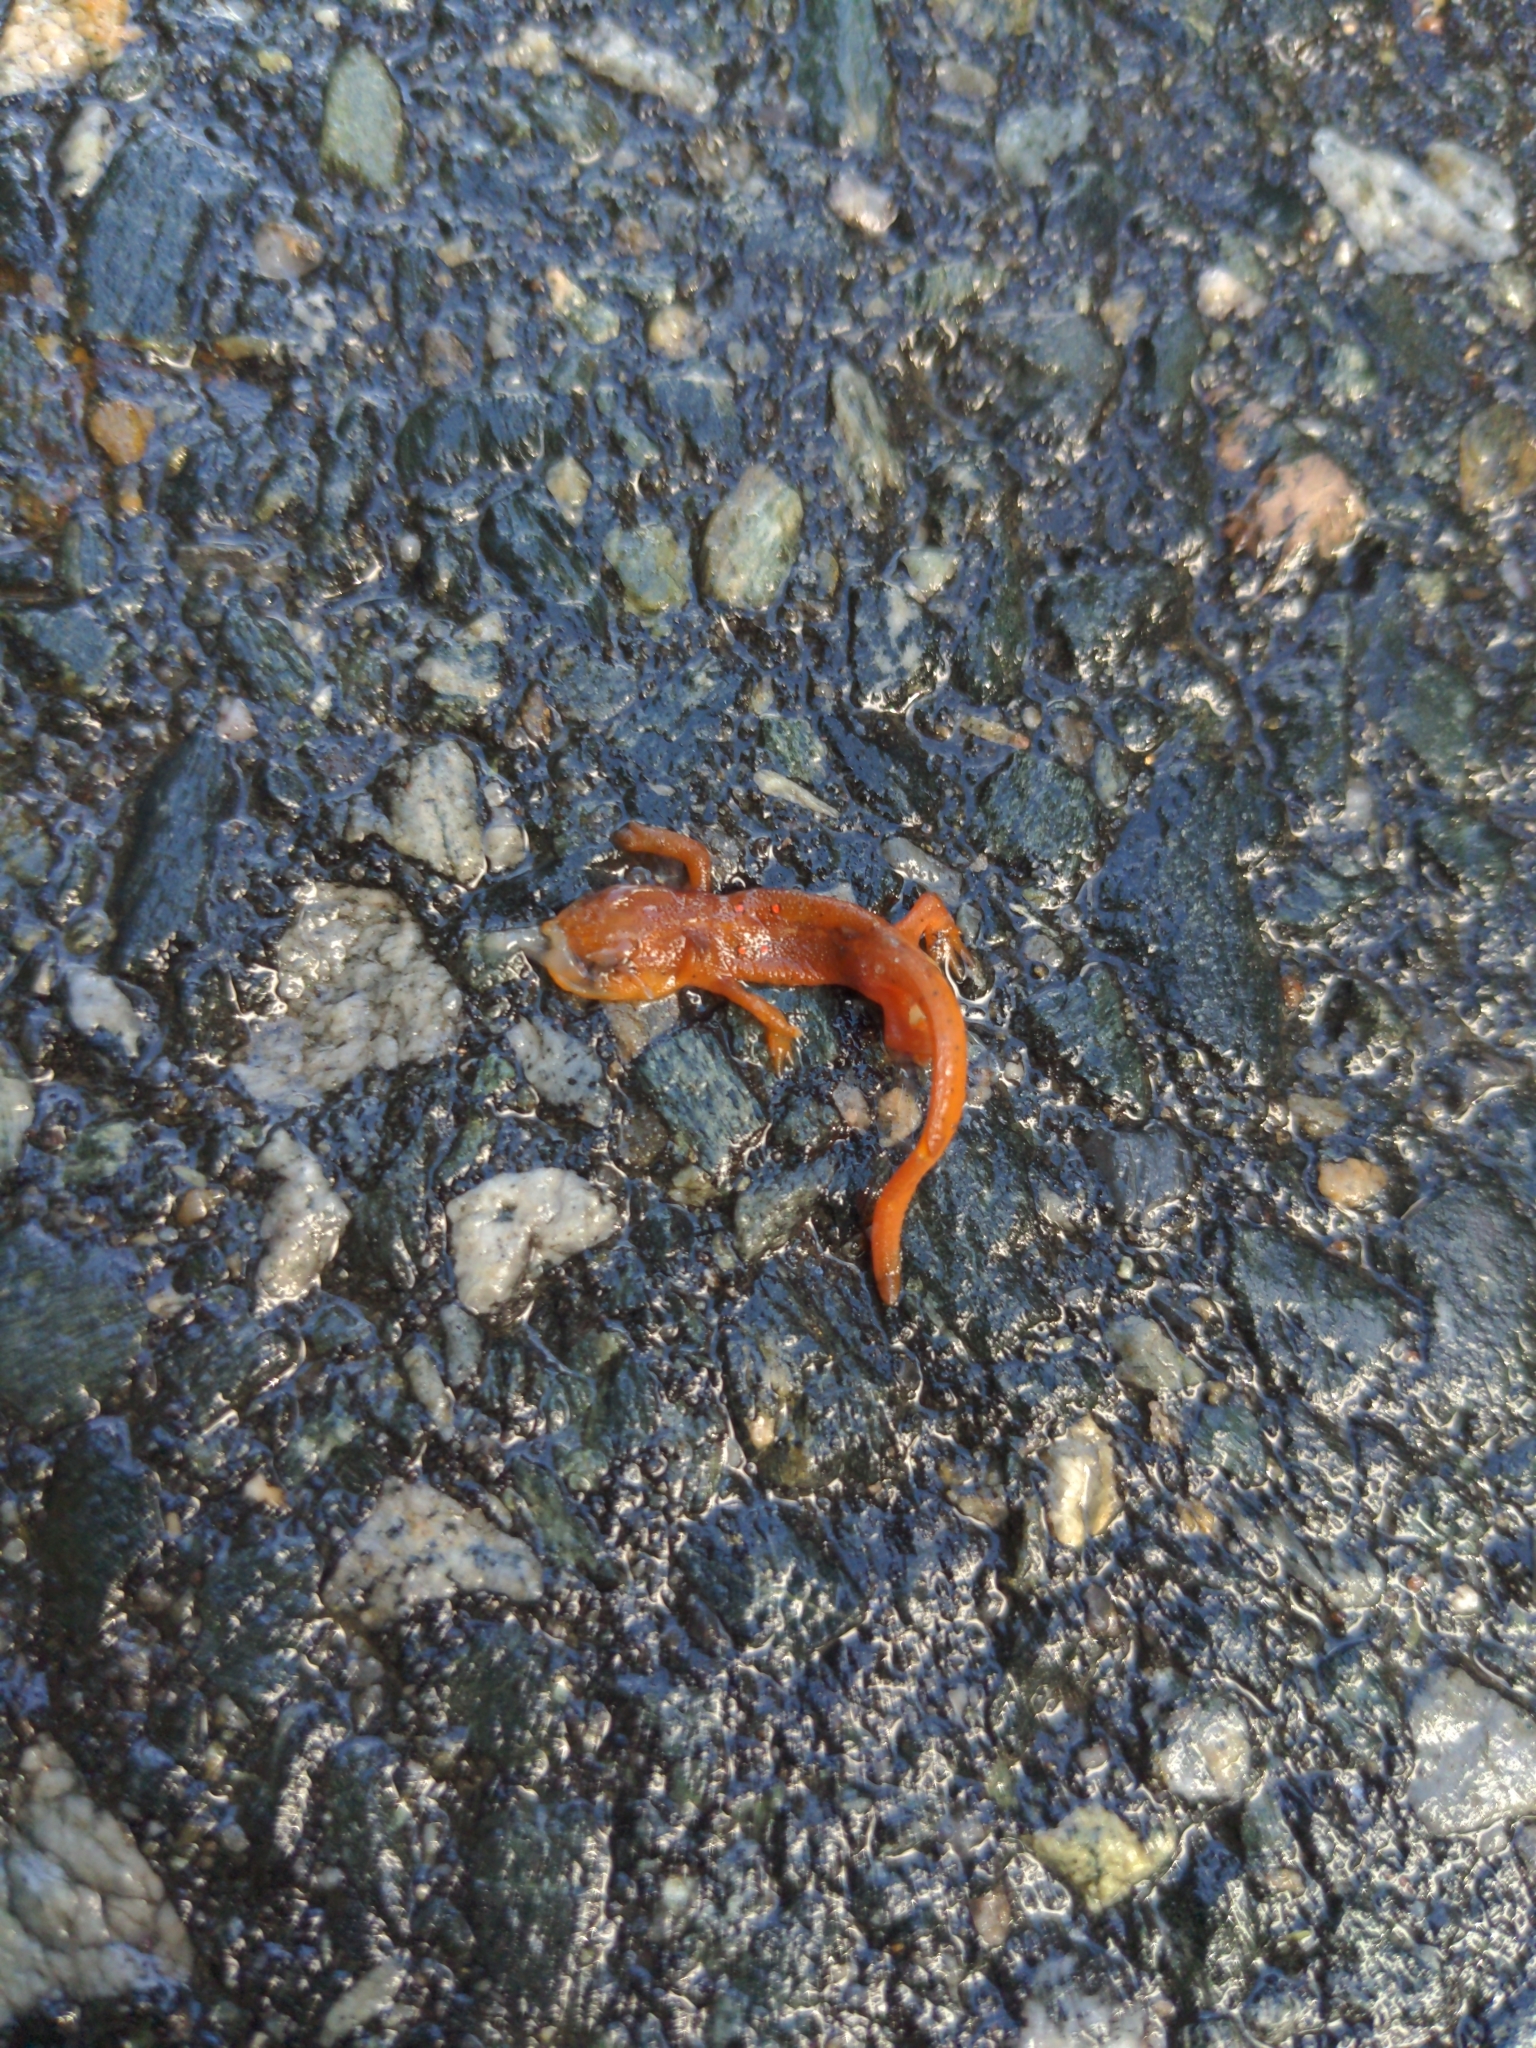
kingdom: Animalia
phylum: Chordata
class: Amphibia
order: Caudata
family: Salamandridae
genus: Notophthalmus
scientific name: Notophthalmus viridescens
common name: Eastern newt
